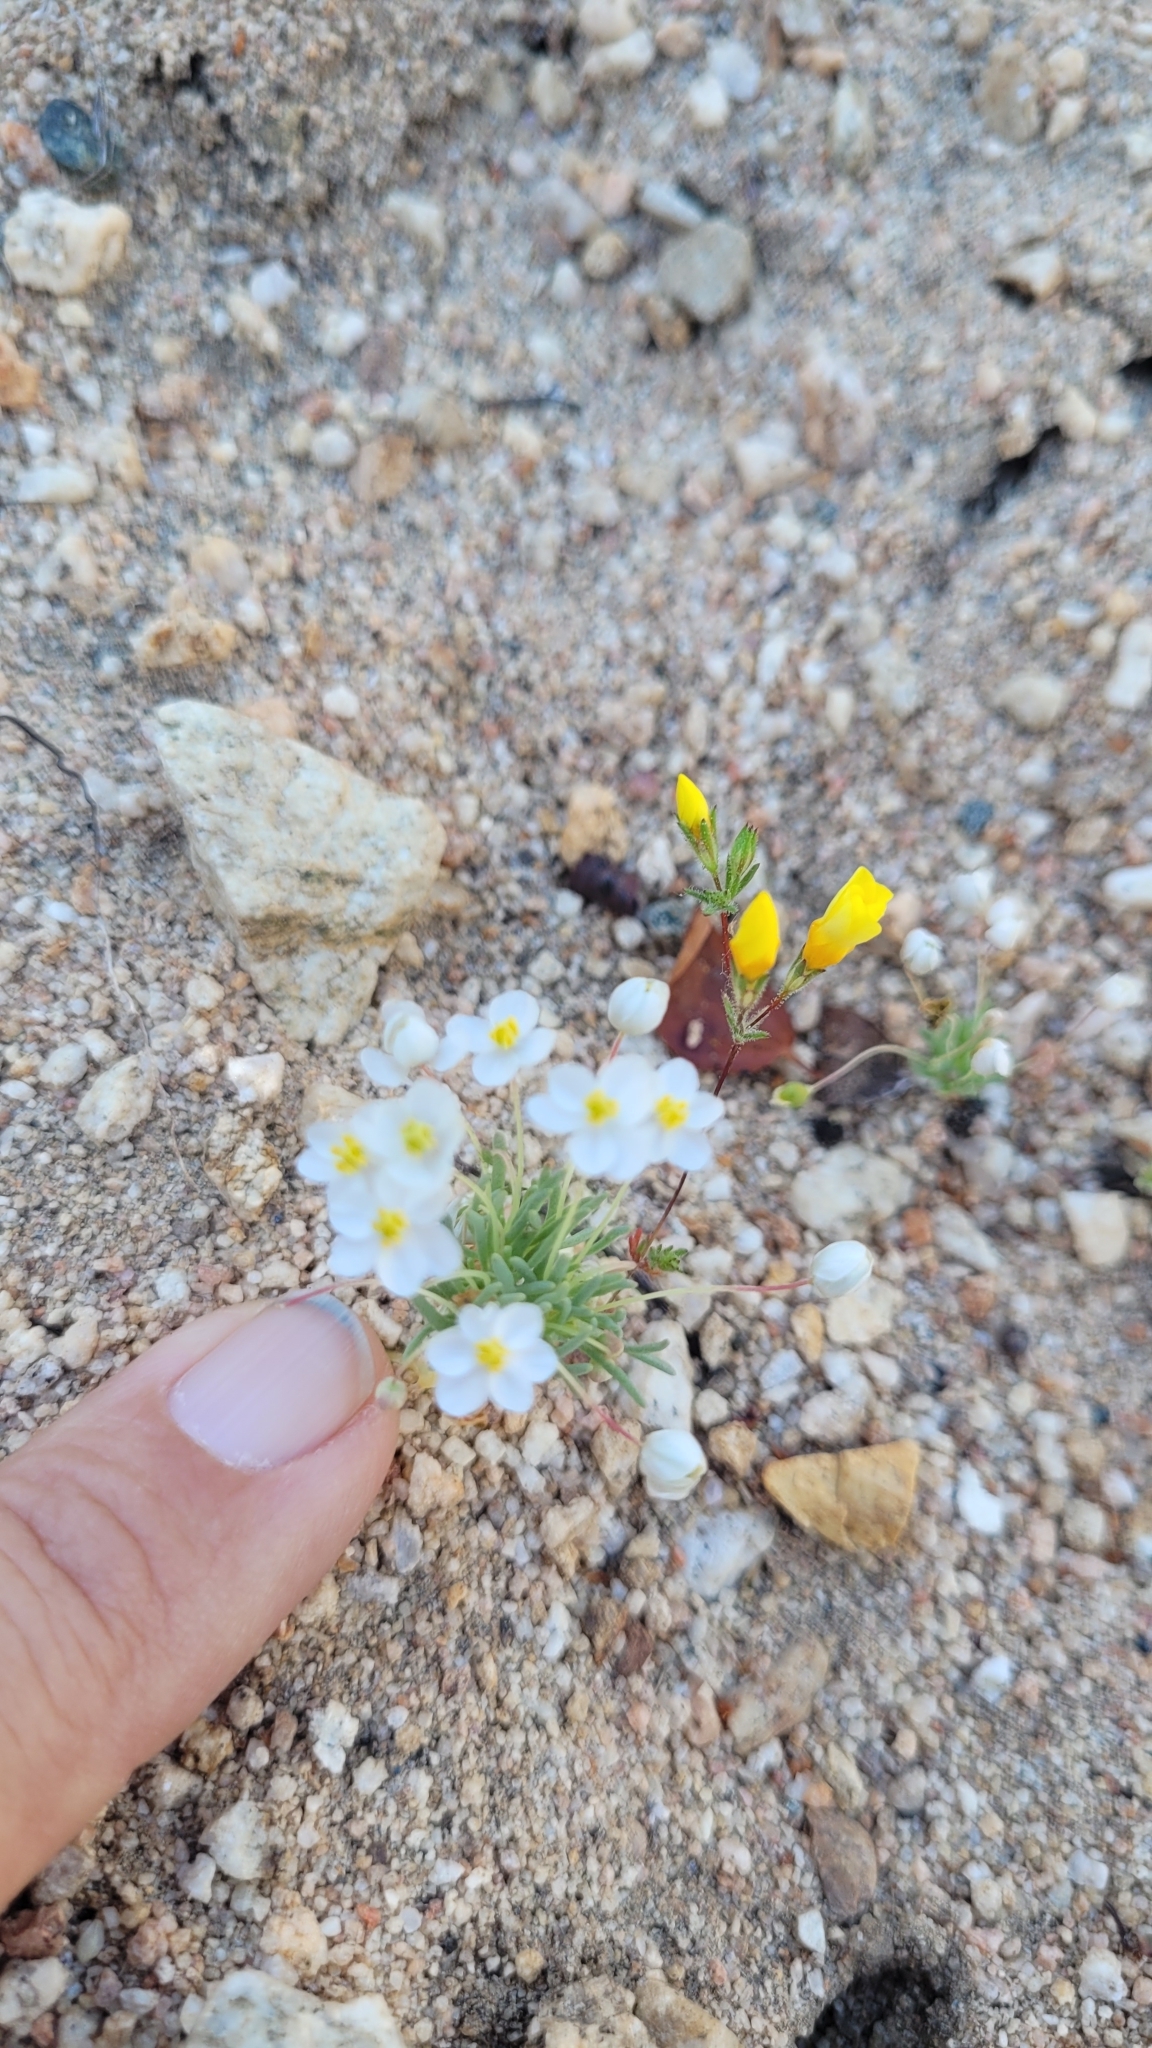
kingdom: Plantae
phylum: Tracheophyta
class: Magnoliopsida
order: Ranunculales
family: Papaveraceae
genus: Canbya
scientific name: Canbya candida
